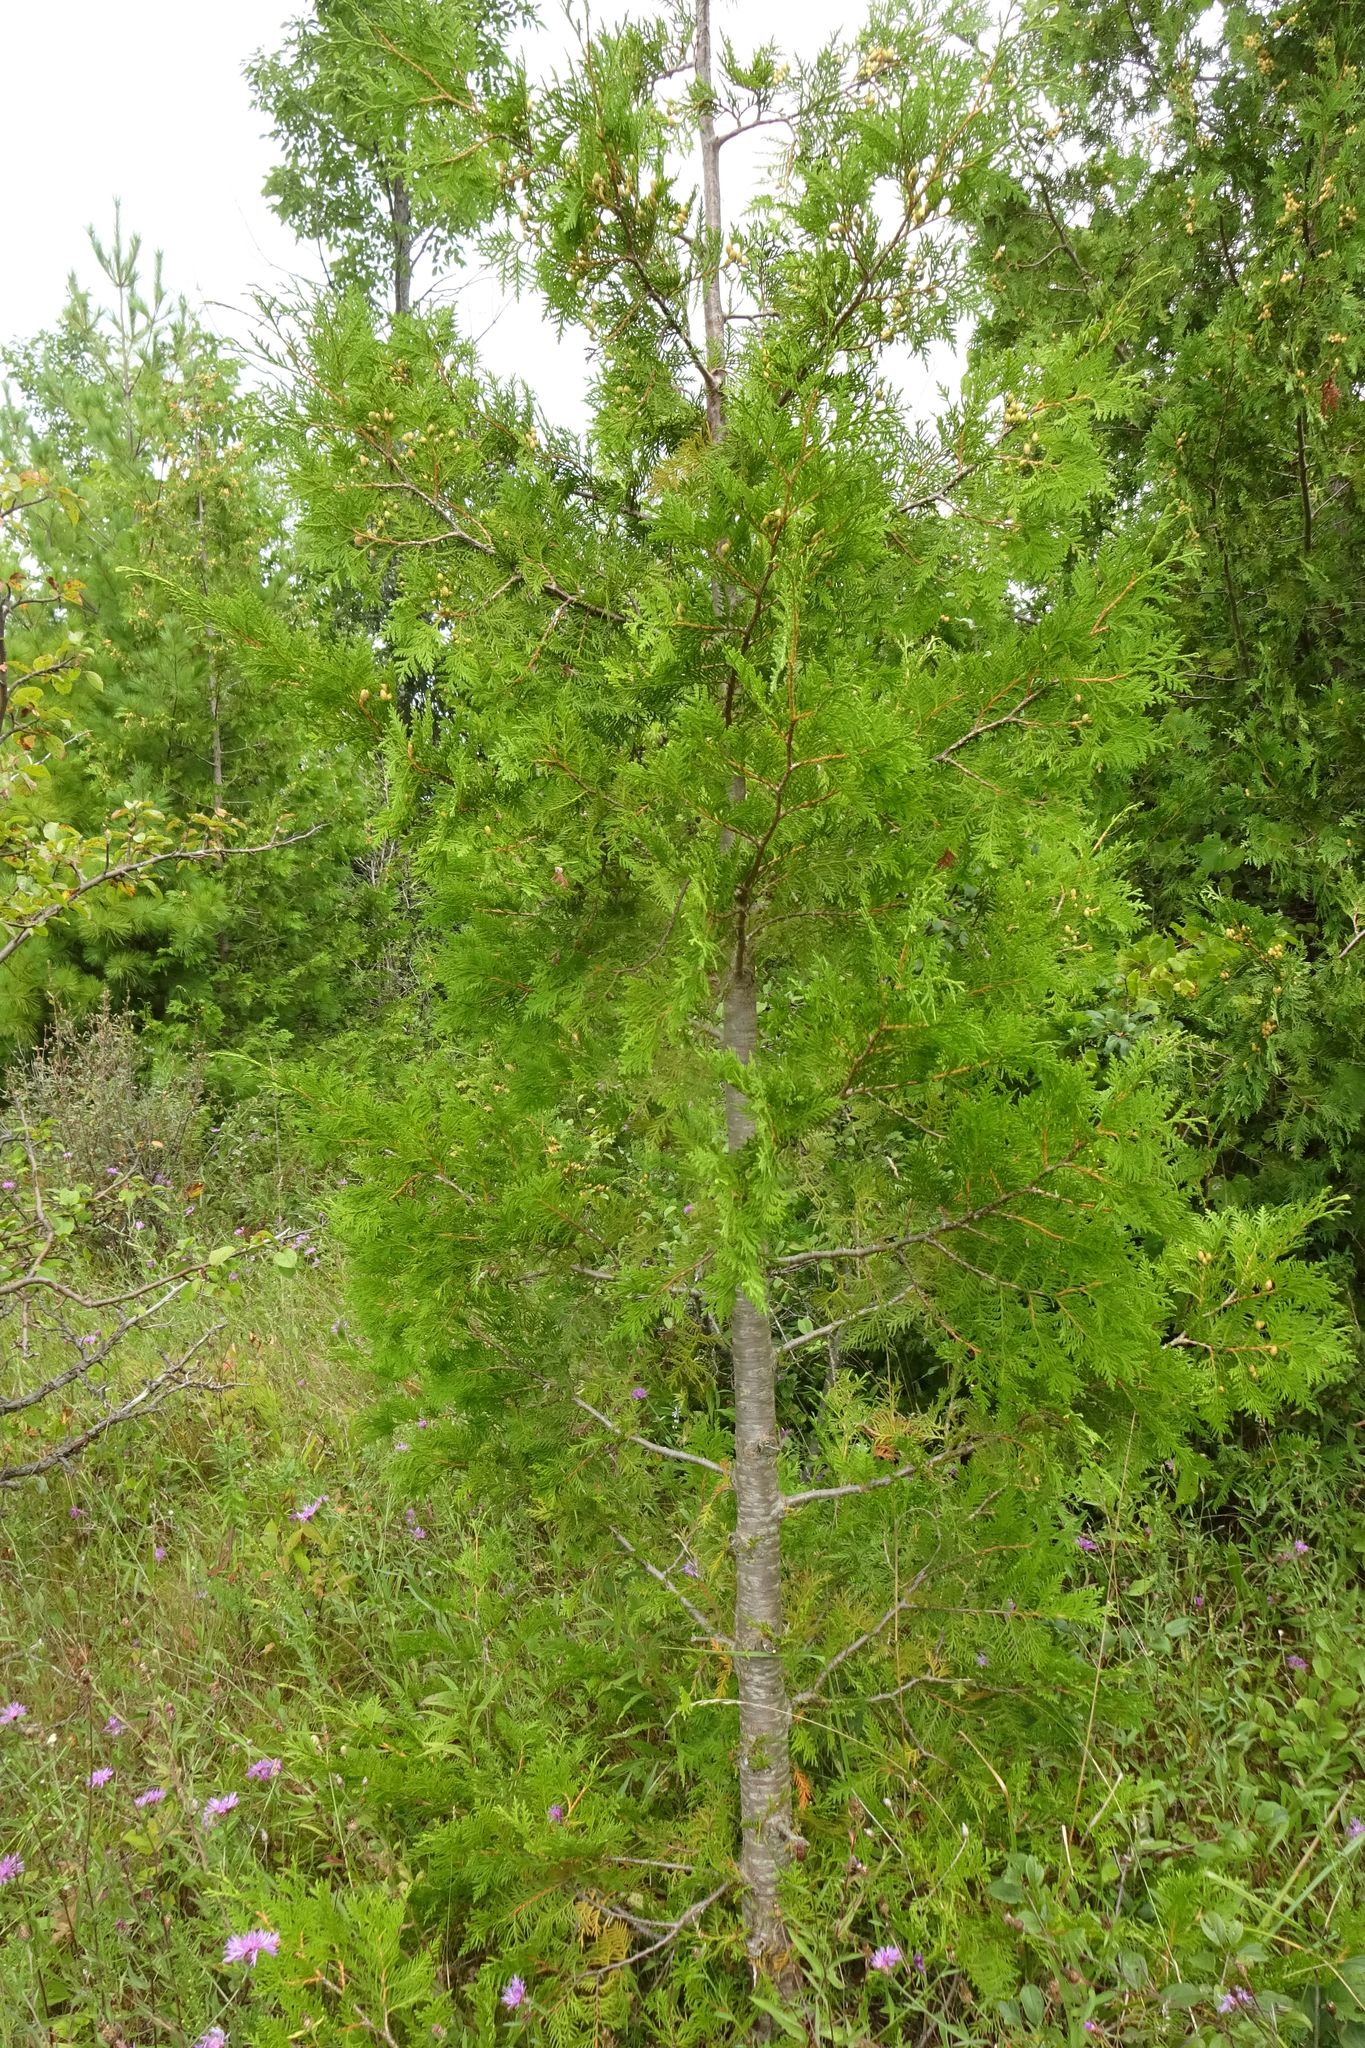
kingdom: Plantae
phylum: Tracheophyta
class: Pinopsida
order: Pinales
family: Cupressaceae
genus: Thuja
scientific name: Thuja occidentalis
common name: Northern white-cedar
